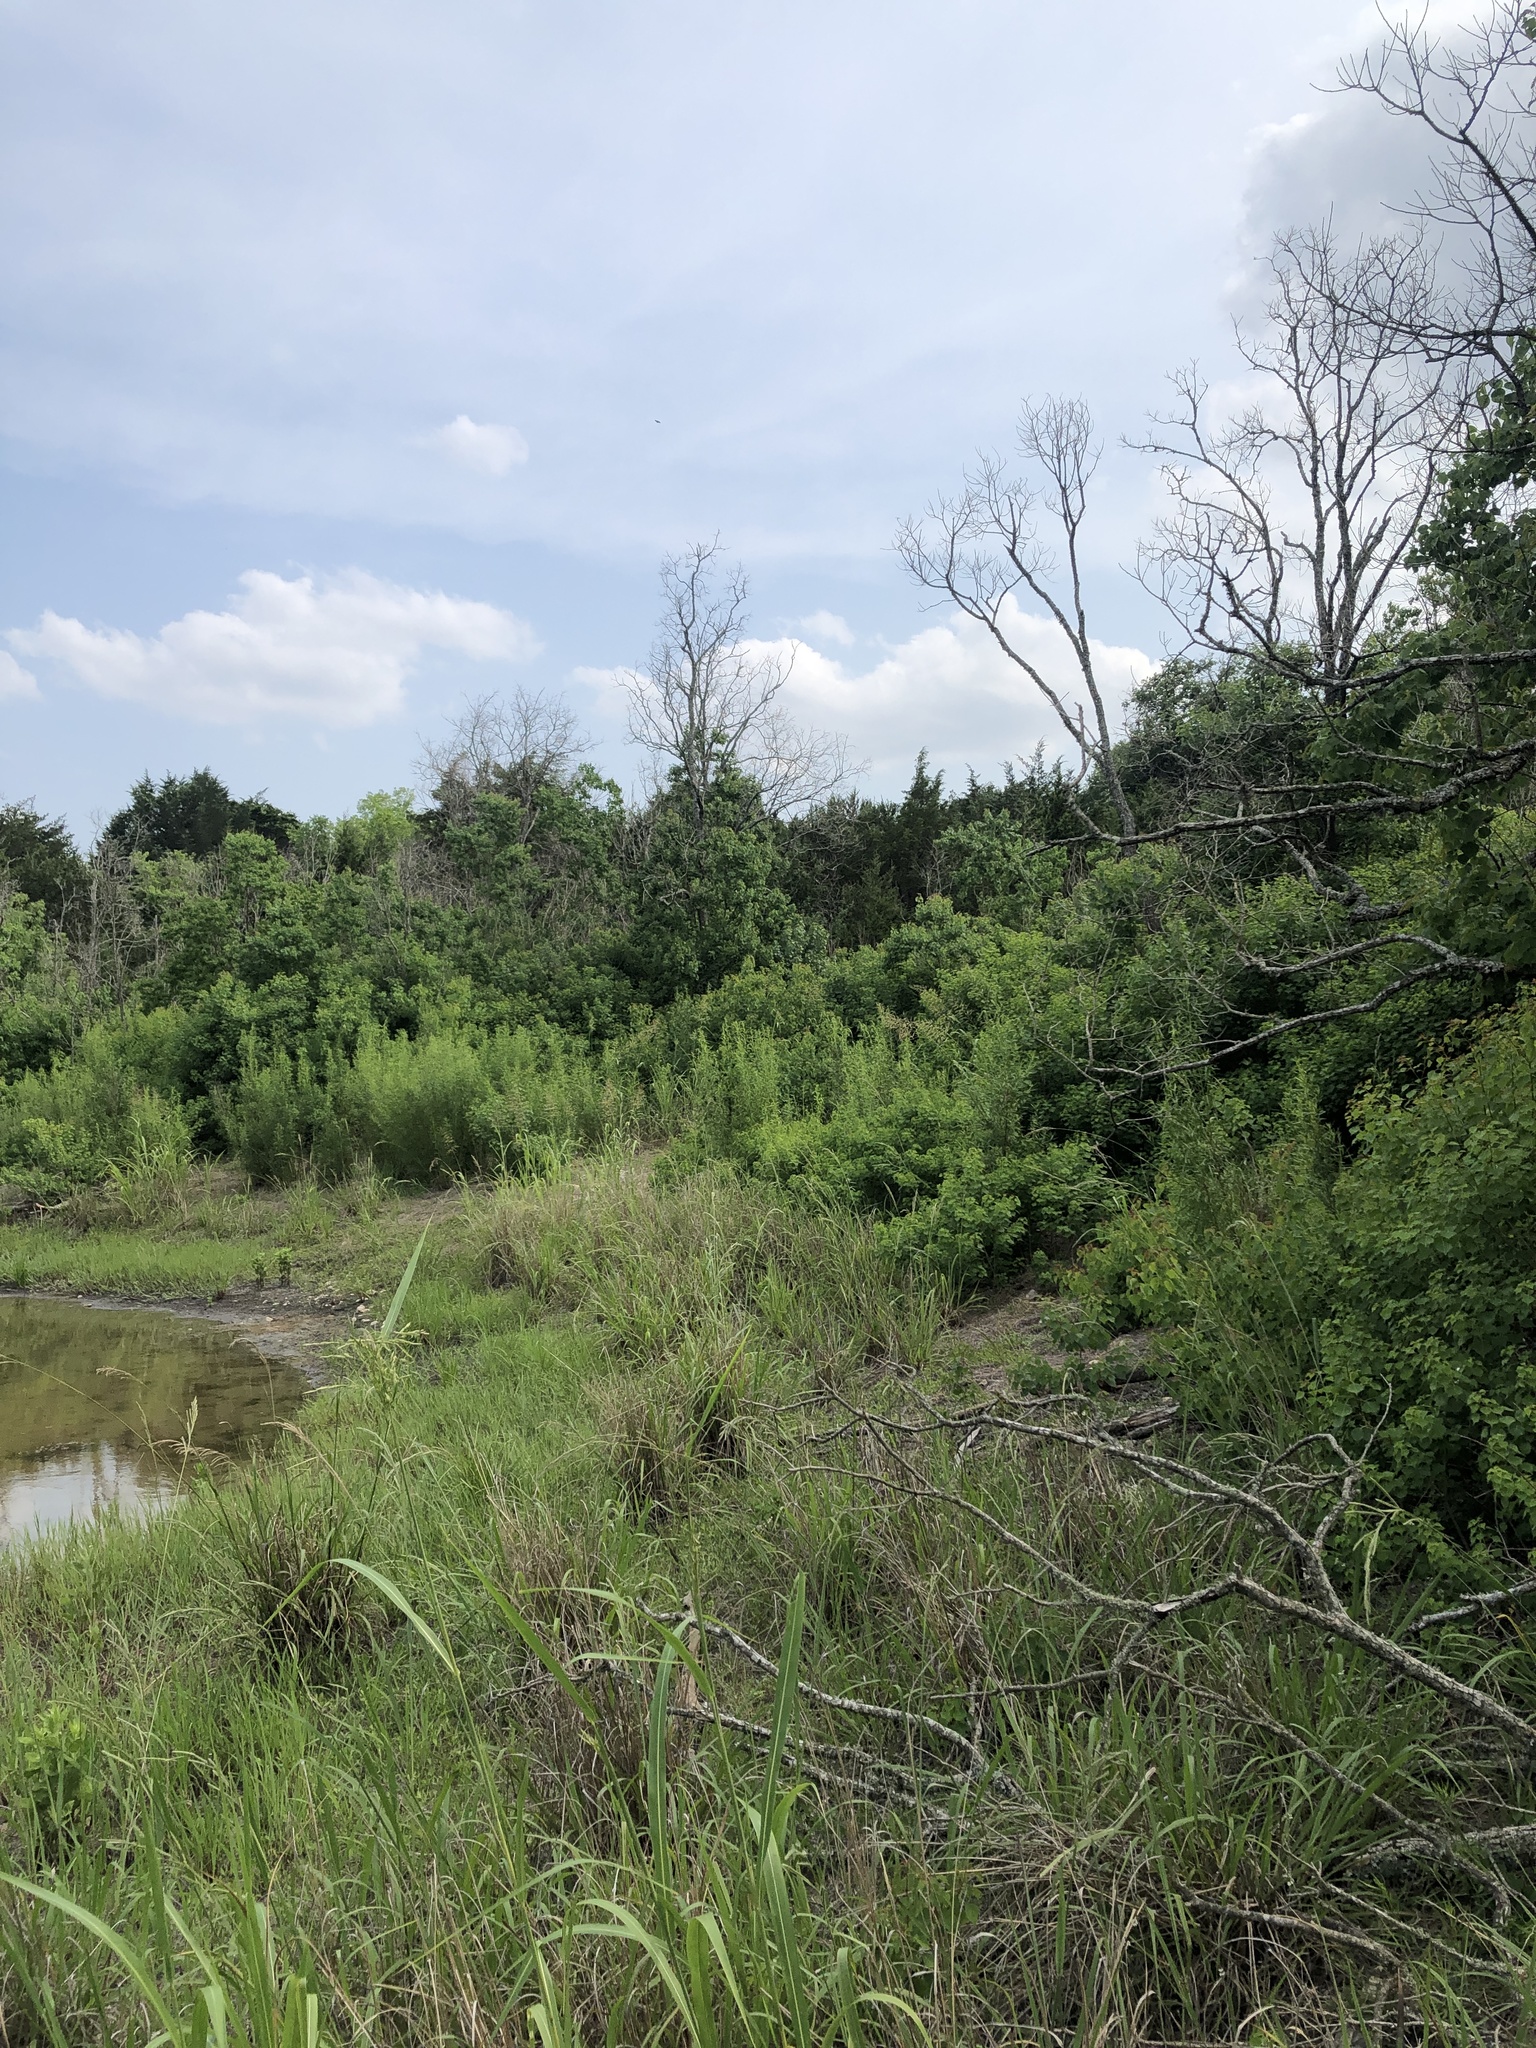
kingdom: Animalia
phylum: Chordata
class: Aves
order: Passeriformes
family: Cardinalidae
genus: Passerina
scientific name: Passerina ciris
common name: Painted bunting
